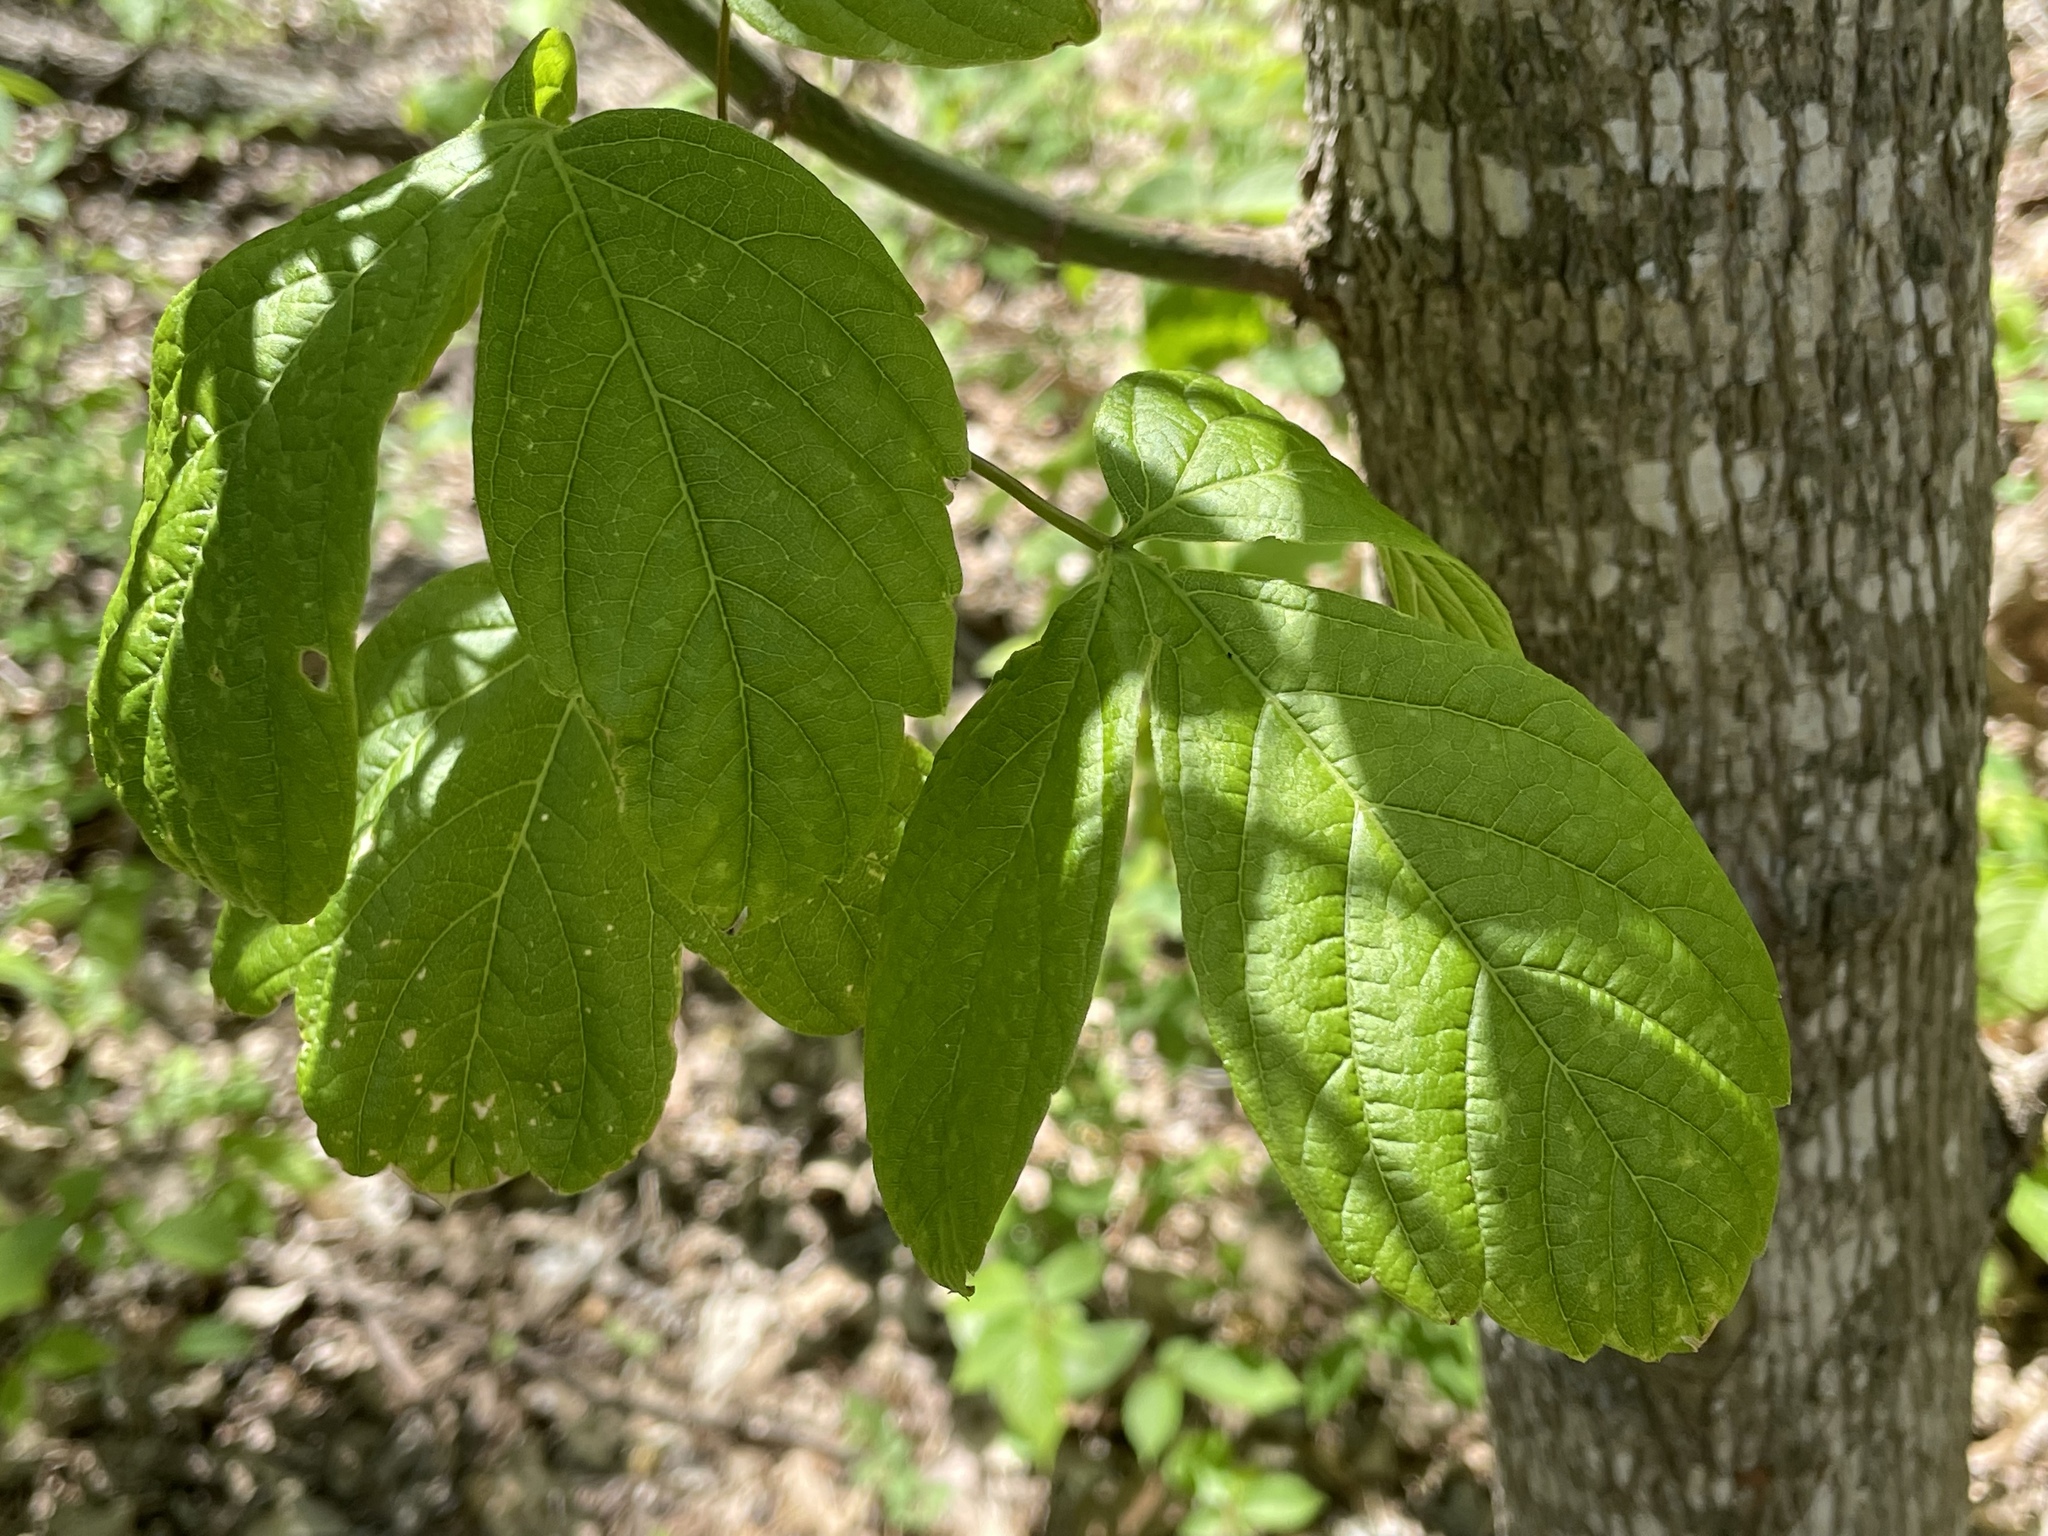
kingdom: Plantae
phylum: Tracheophyta
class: Magnoliopsida
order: Sapindales
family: Sapindaceae
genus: Acer
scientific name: Acer negundo
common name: Ashleaf maple
